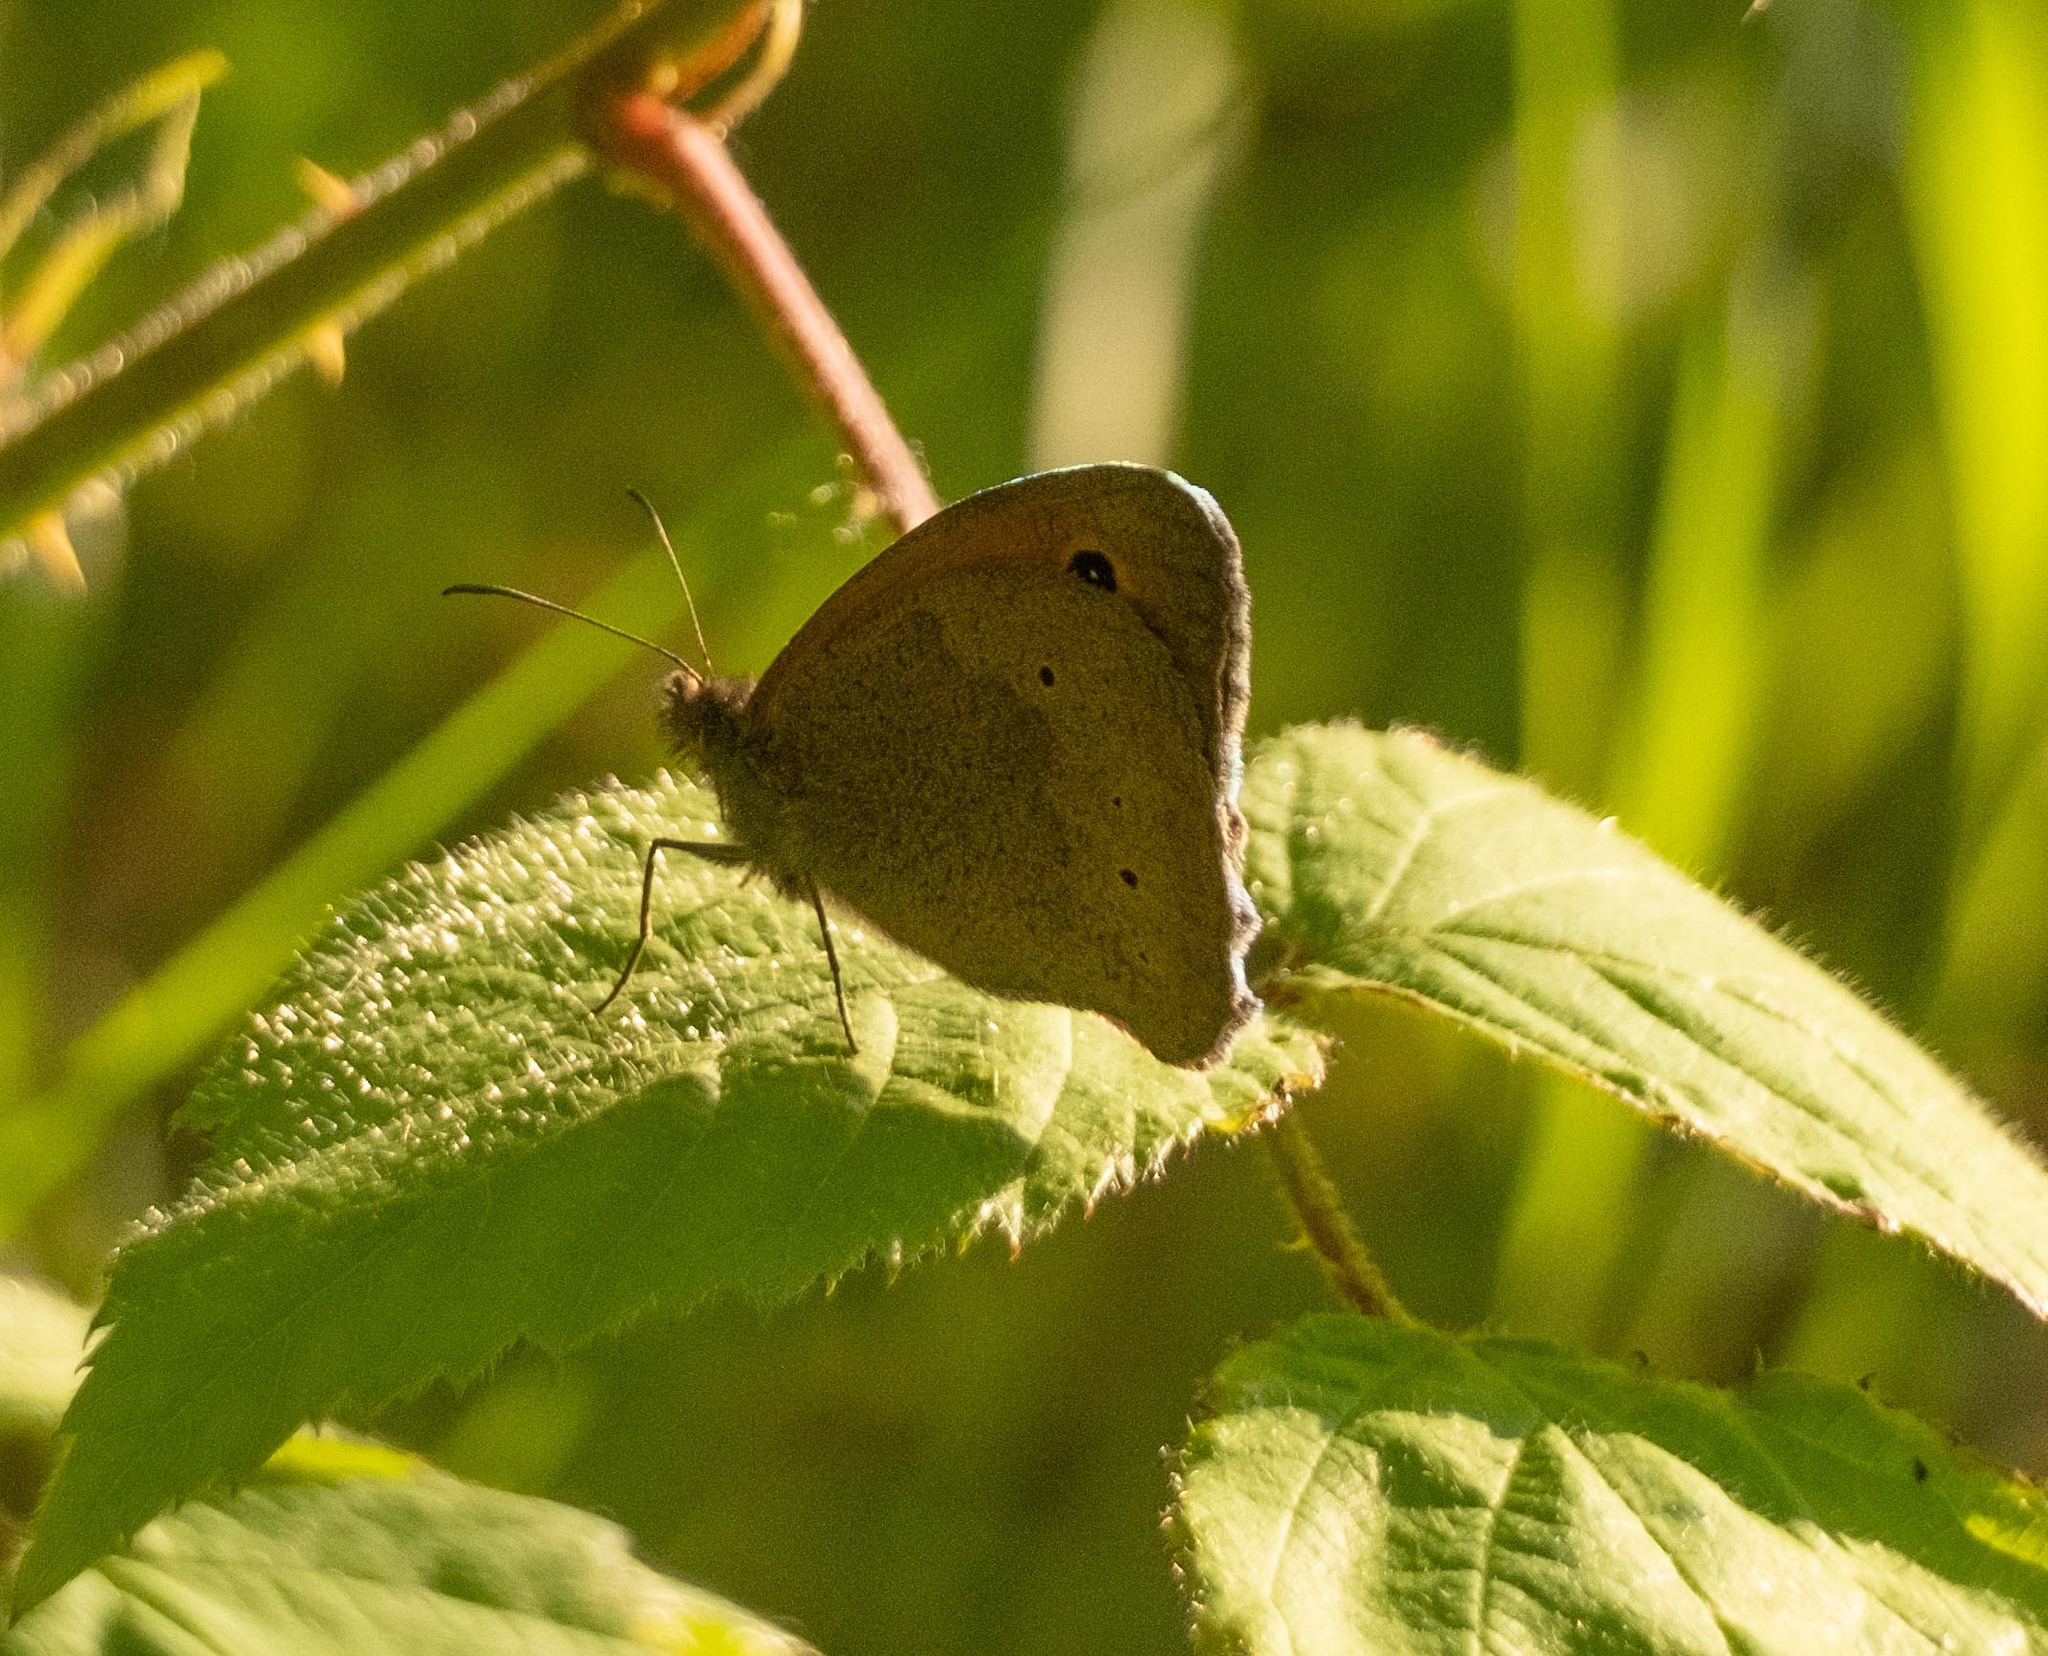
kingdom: Animalia
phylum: Arthropoda
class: Insecta
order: Lepidoptera
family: Nymphalidae
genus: Maniola
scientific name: Maniola jurtina
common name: Meadow brown
